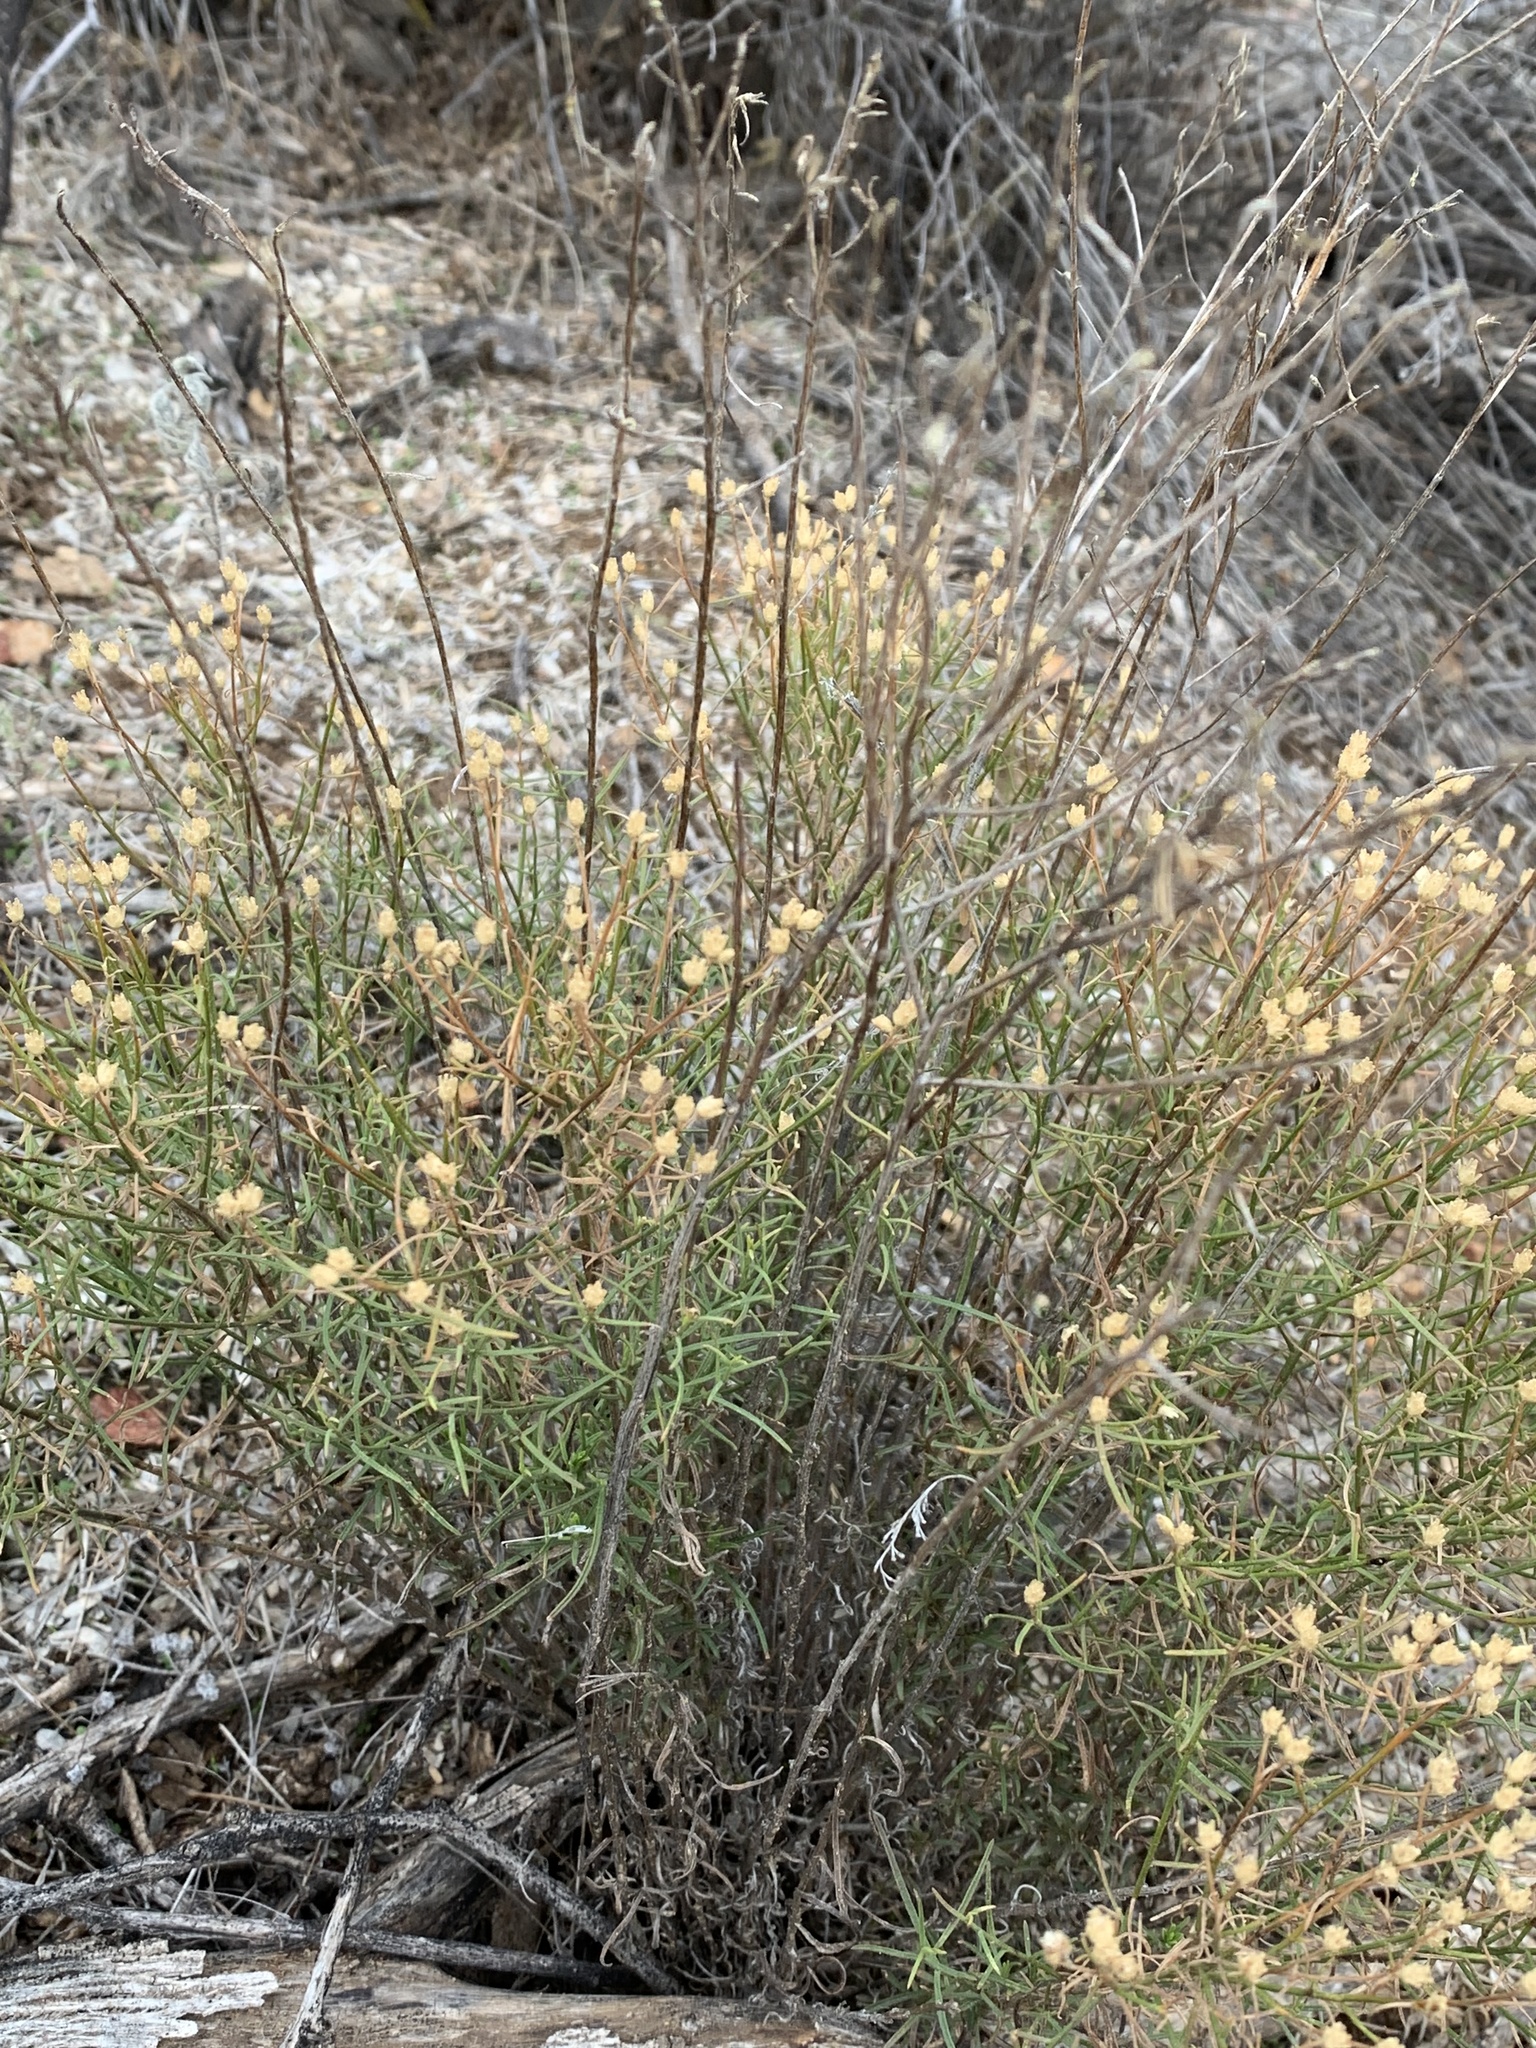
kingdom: Plantae
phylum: Tracheophyta
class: Magnoliopsida
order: Asterales
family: Asteraceae
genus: Gutierrezia
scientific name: Gutierrezia sarothrae
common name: Broom snakeweed
